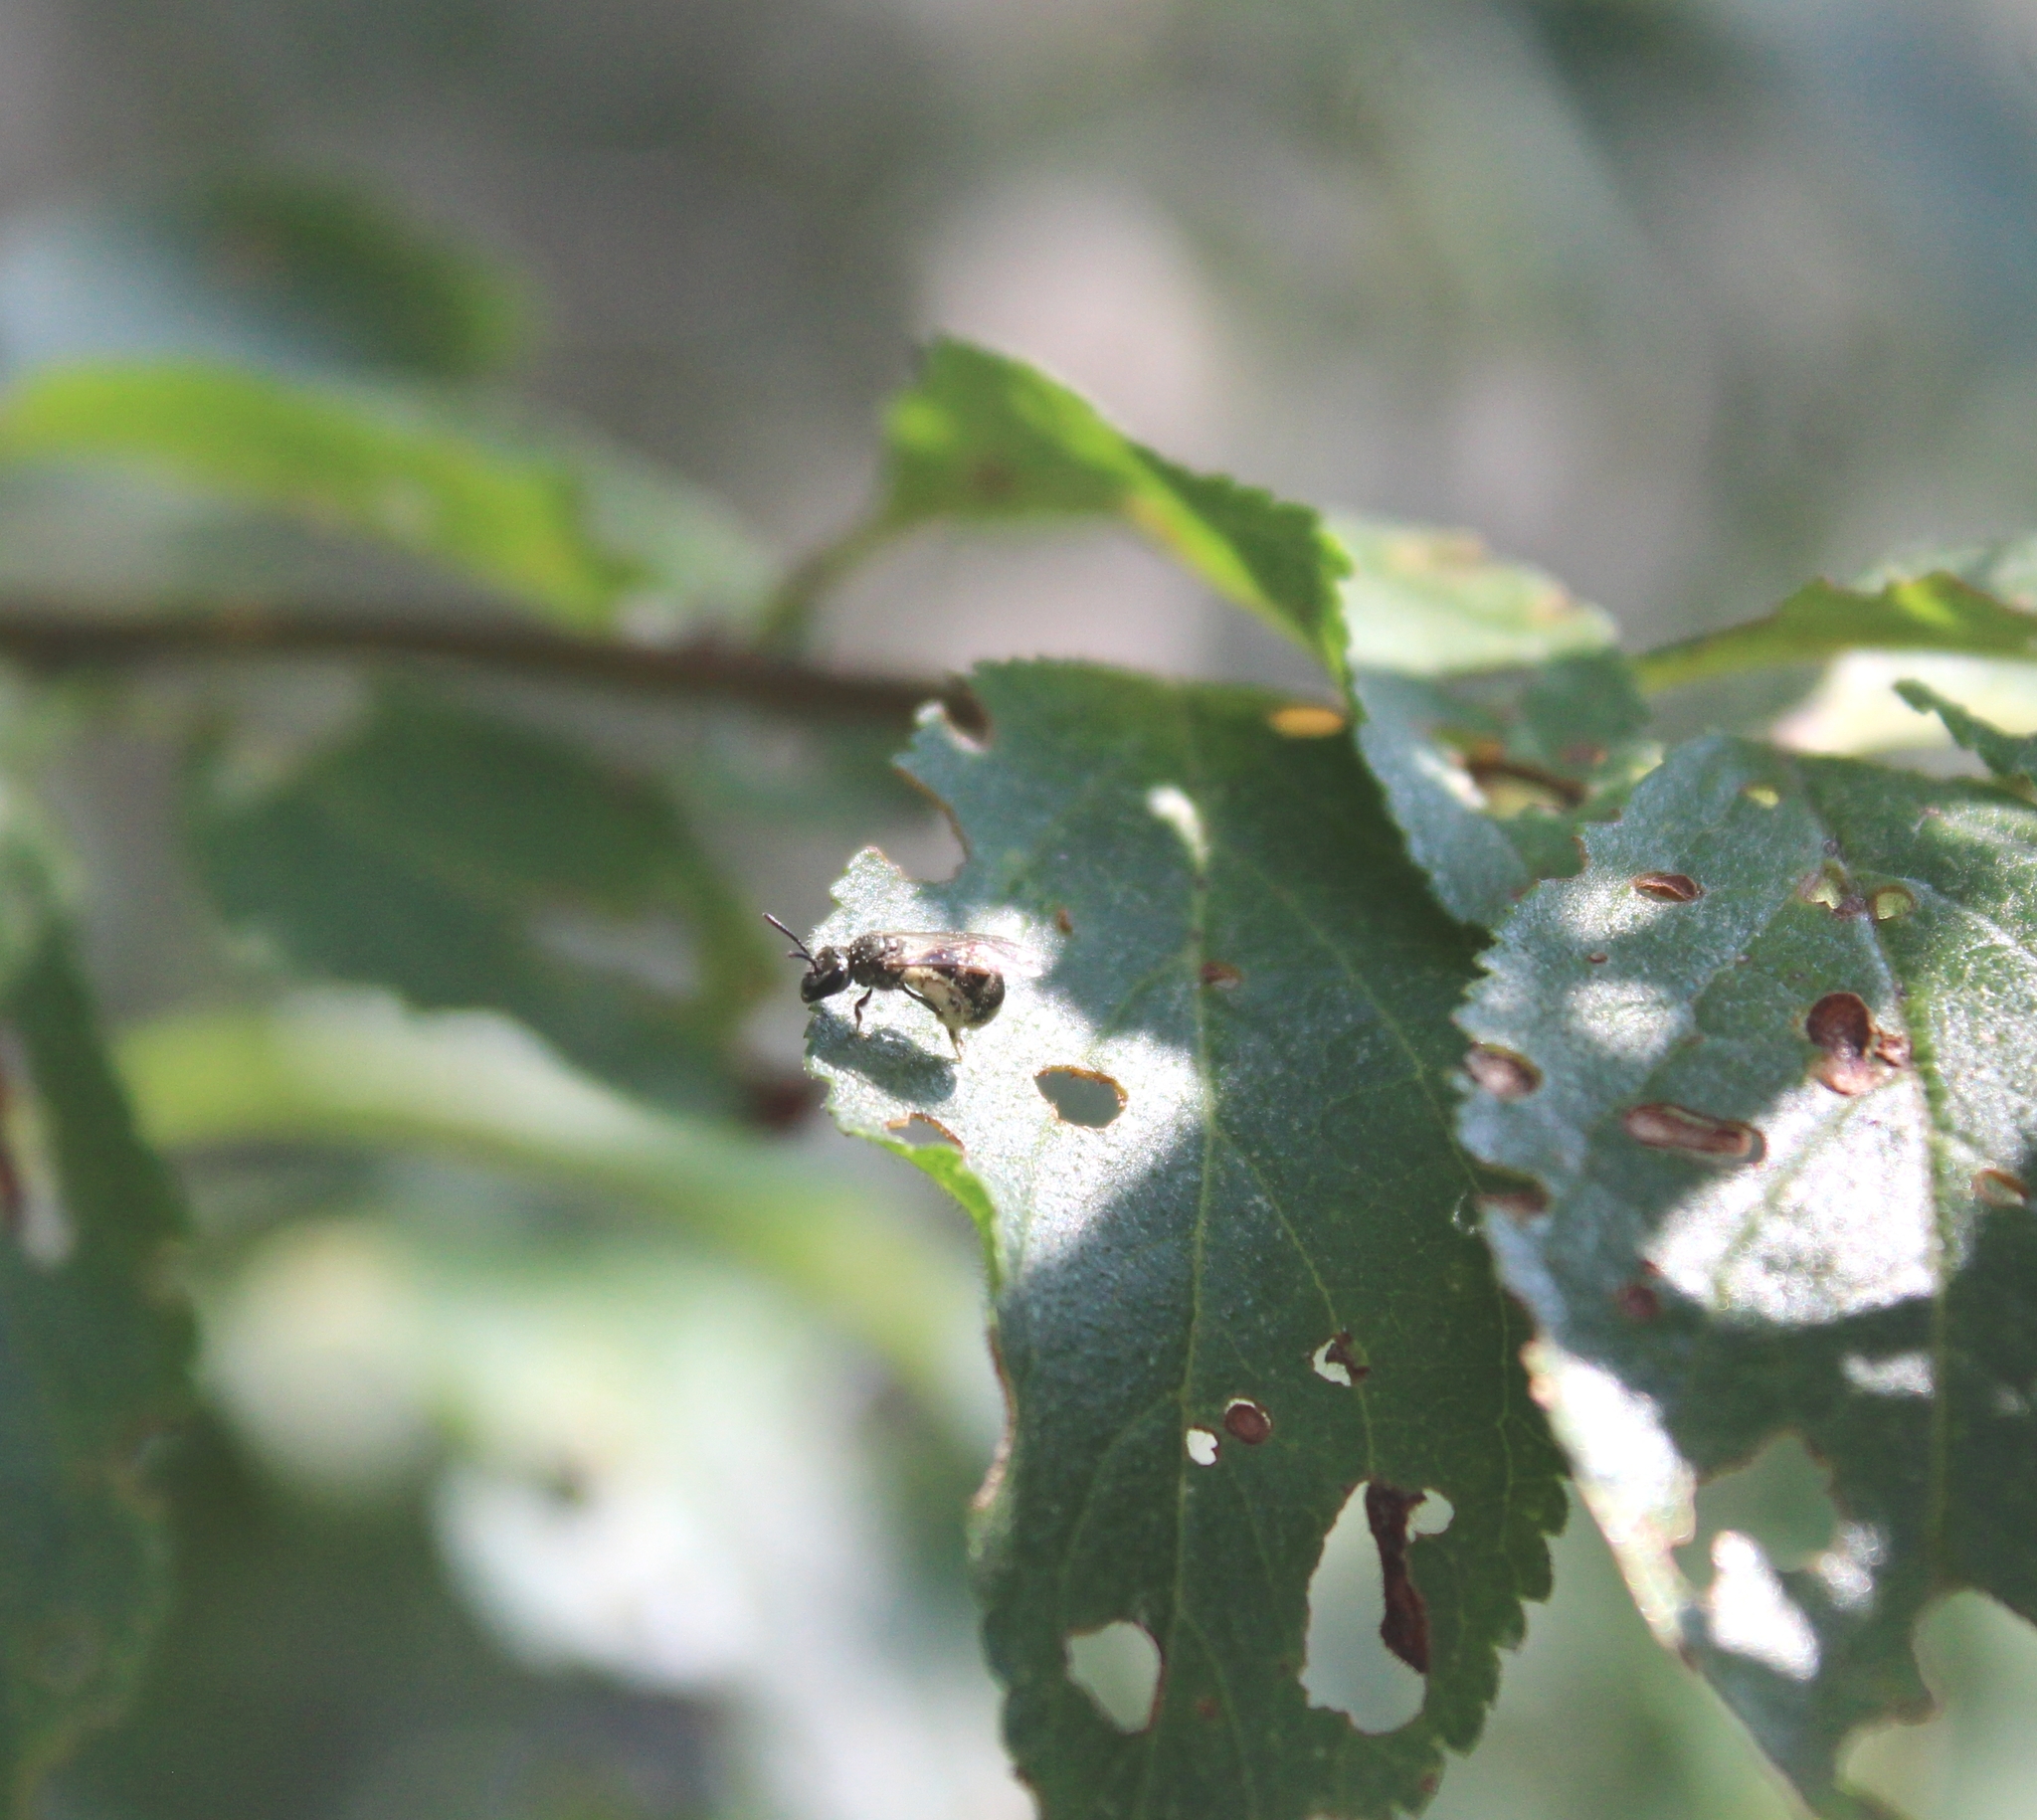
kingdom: Animalia
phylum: Arthropoda
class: Insecta
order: Hymenoptera
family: Halictidae
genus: Dialictus
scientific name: Dialictus
